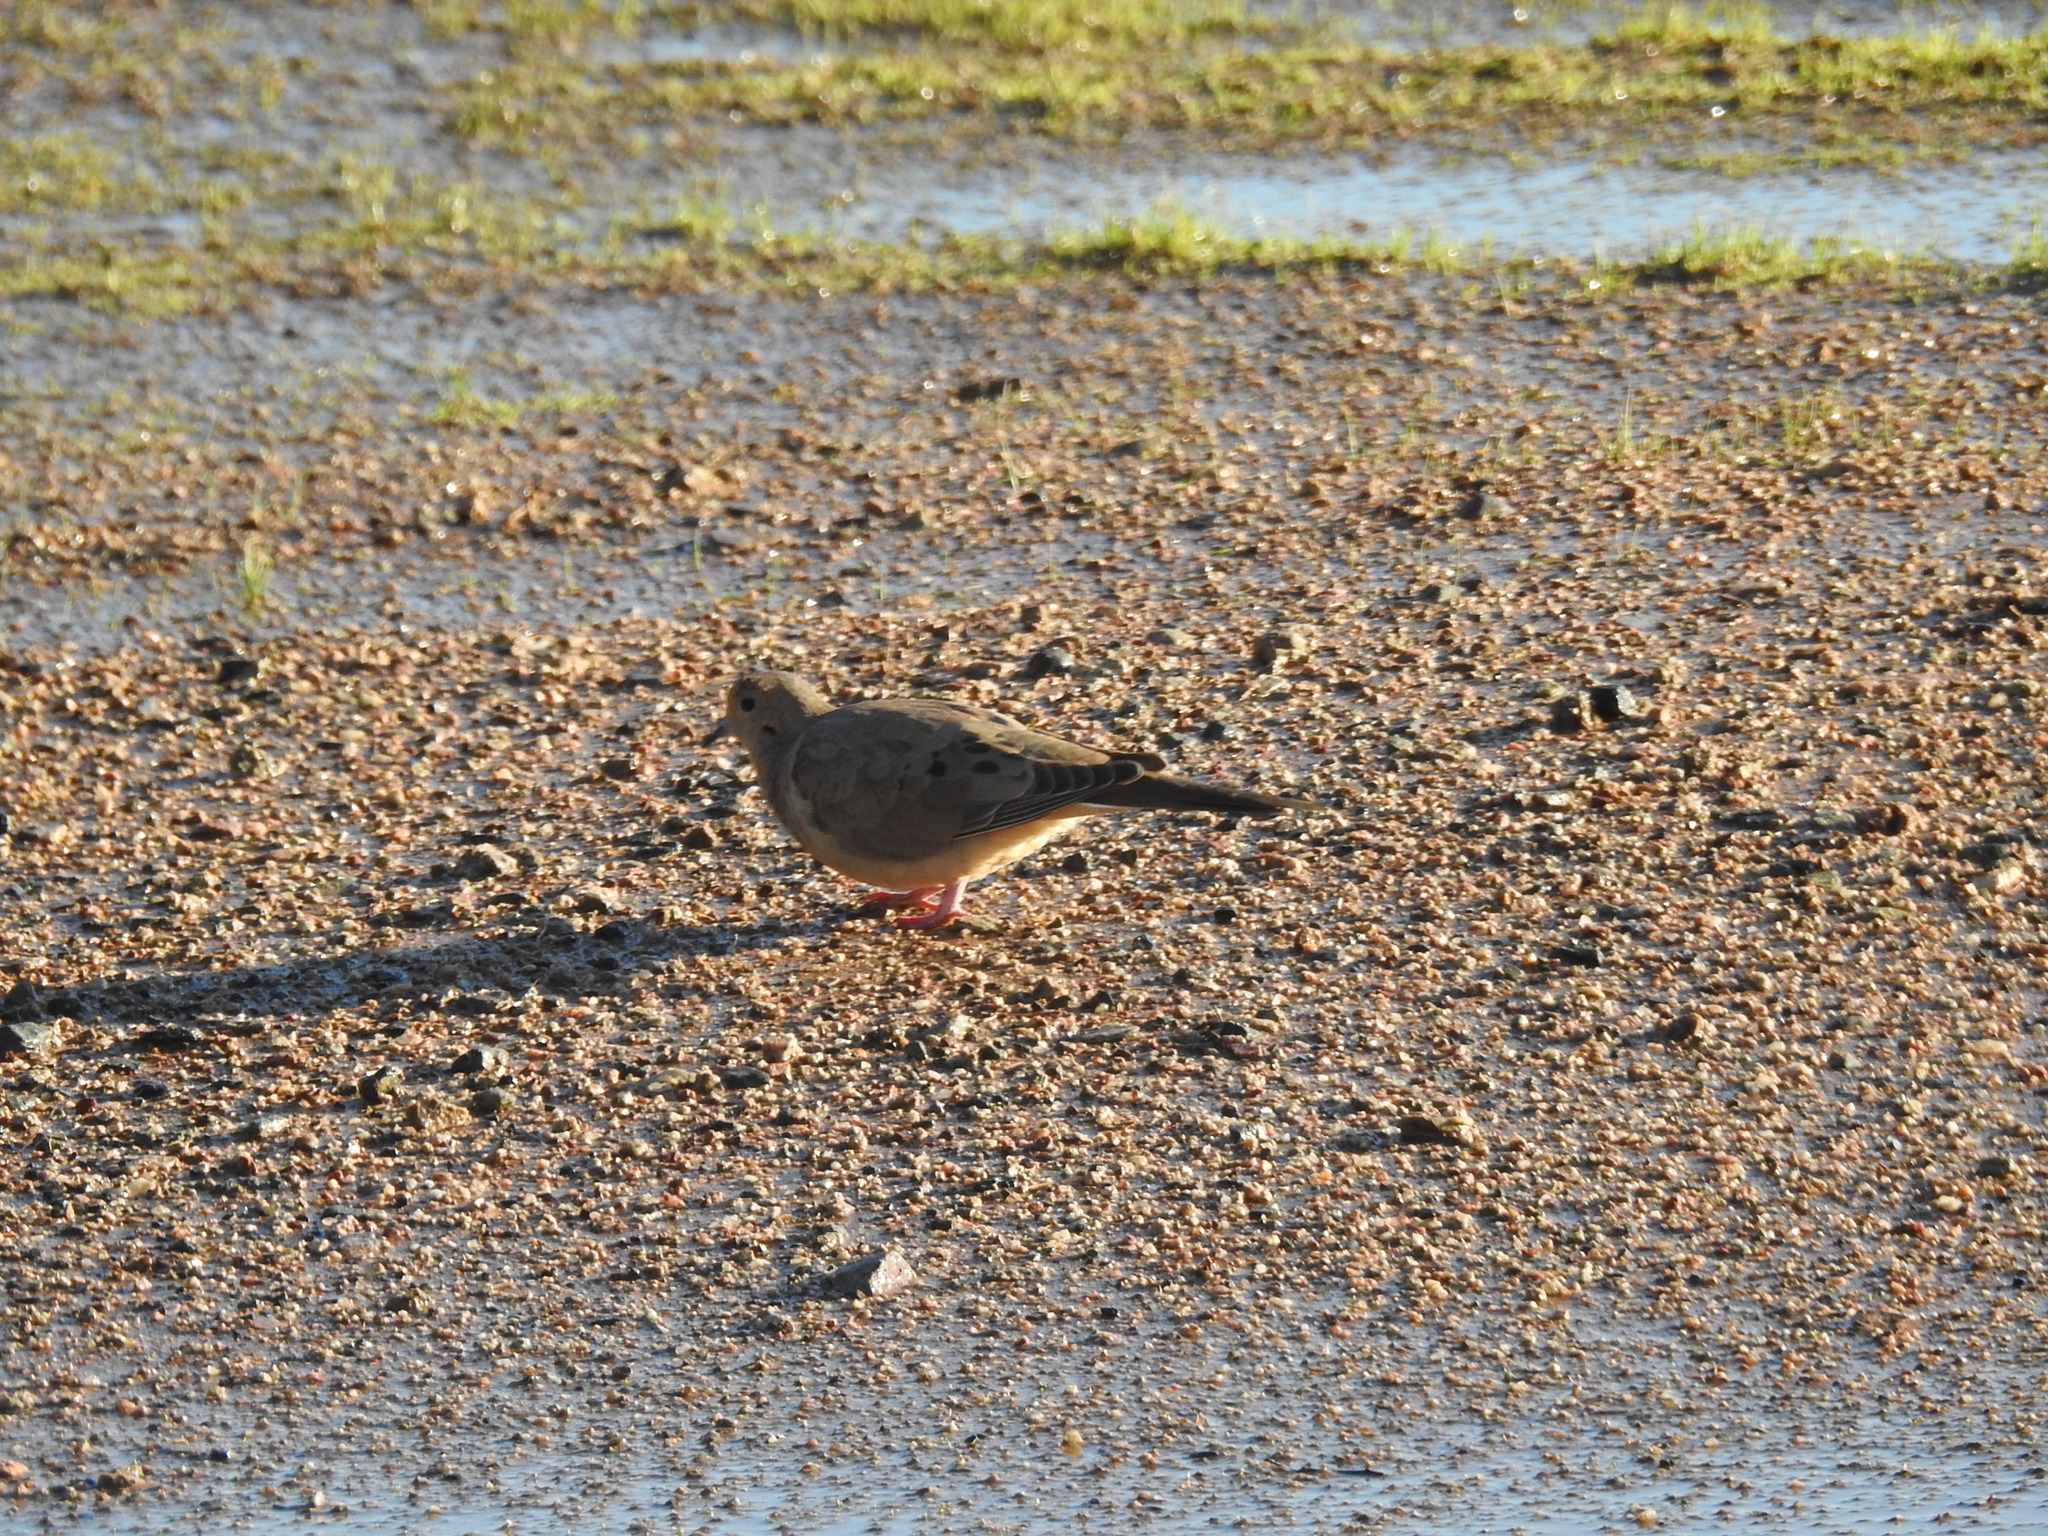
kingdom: Animalia
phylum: Chordata
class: Aves
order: Columbiformes
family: Columbidae
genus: Zenaida
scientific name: Zenaida macroura
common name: Mourning dove
